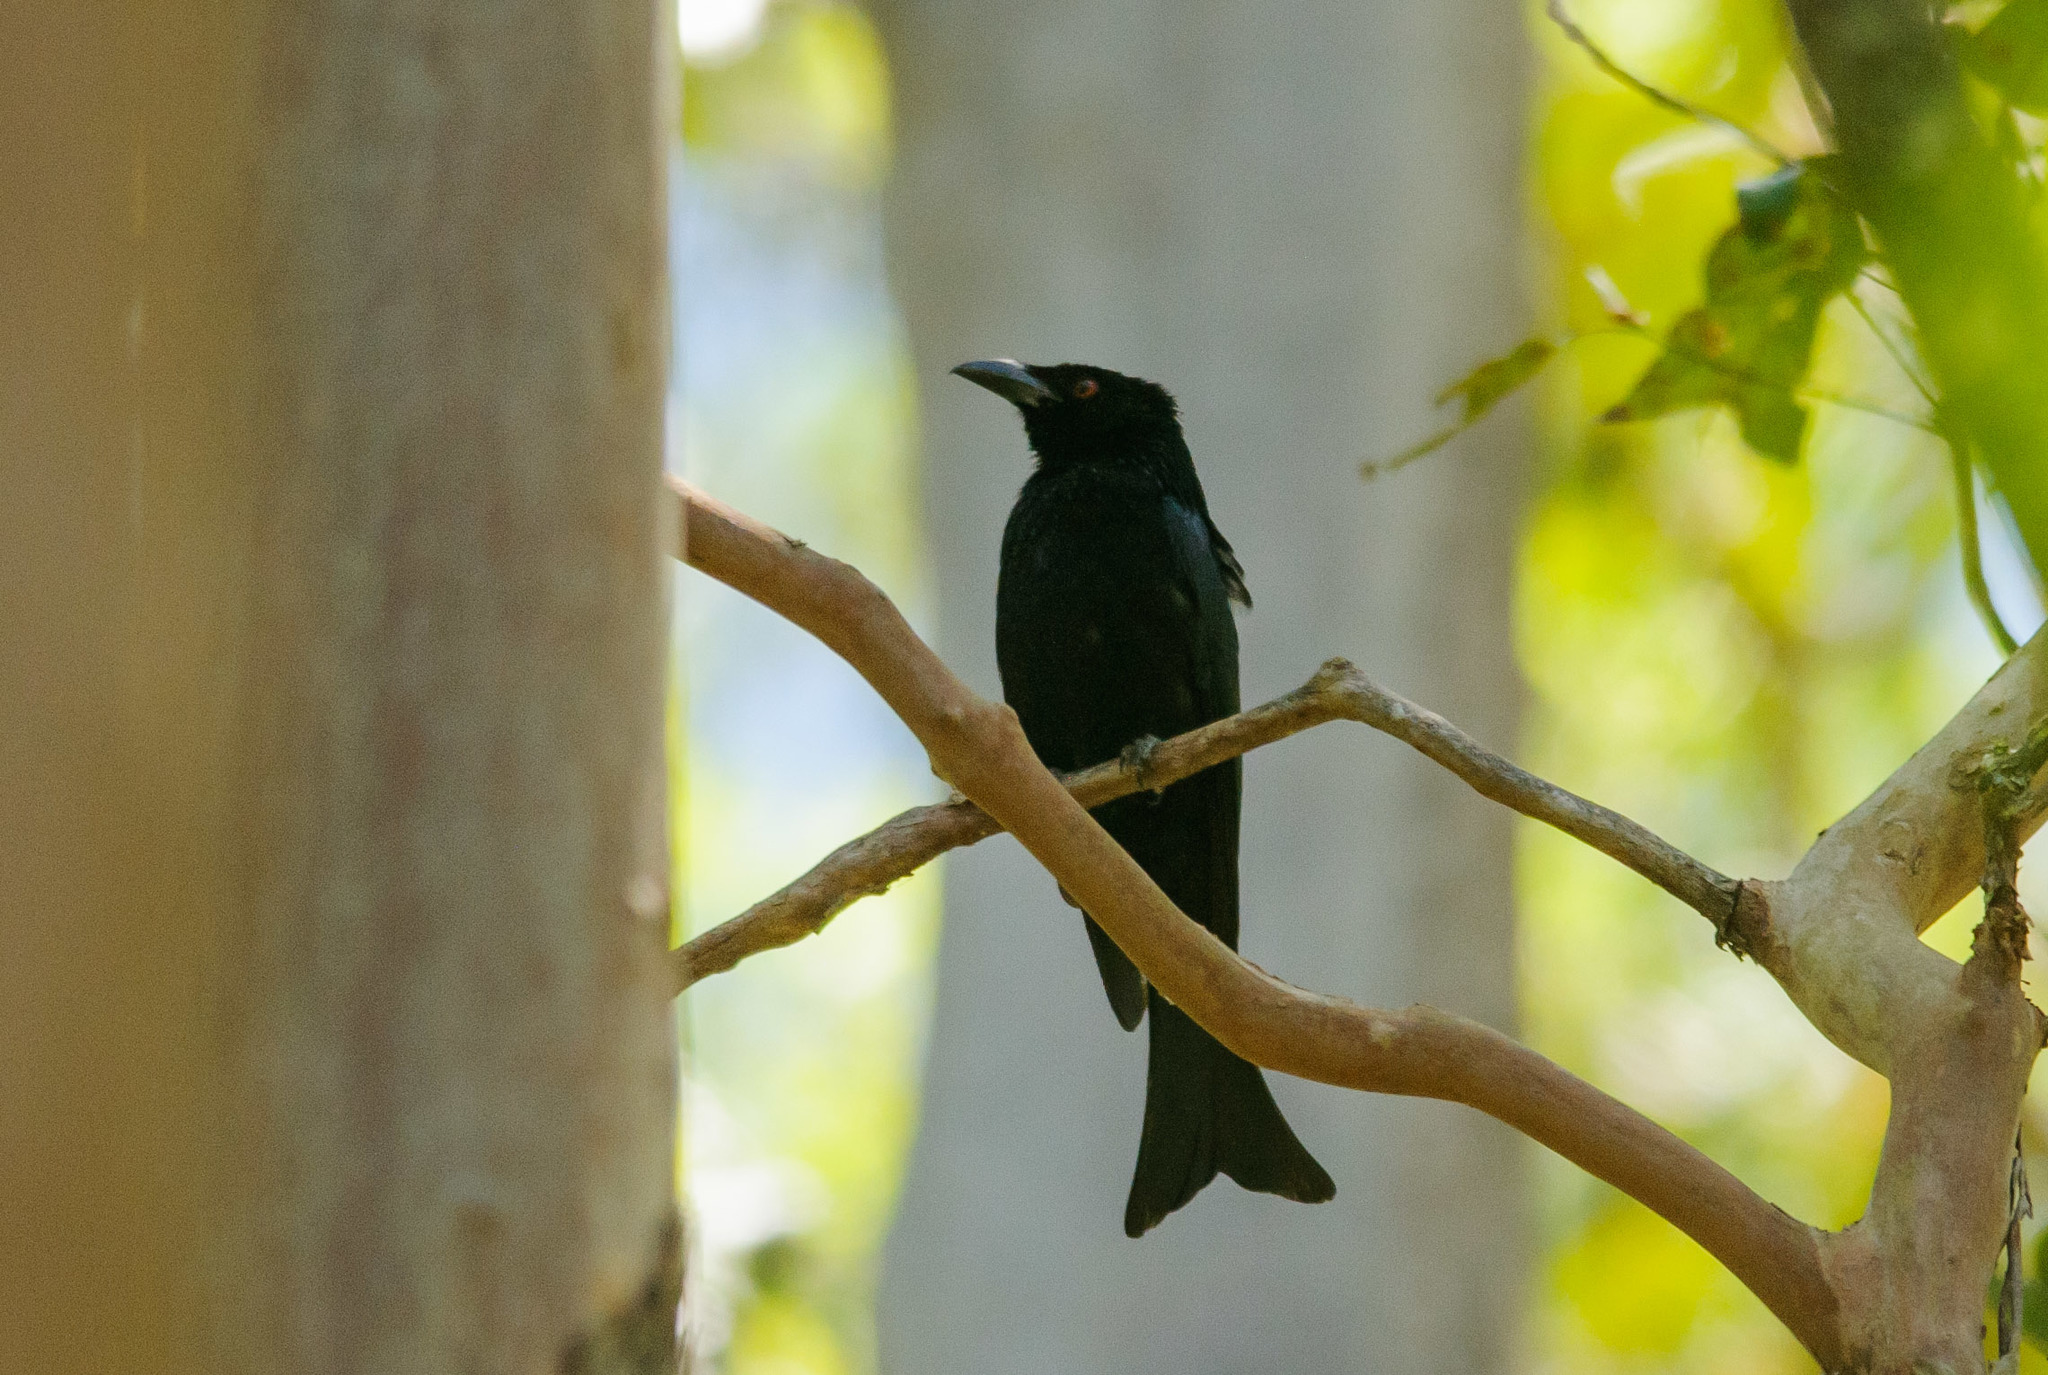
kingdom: Animalia
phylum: Chordata
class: Aves
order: Passeriformes
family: Dicruridae
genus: Dicrurus
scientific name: Dicrurus bracteatus
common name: Spangled drongo
